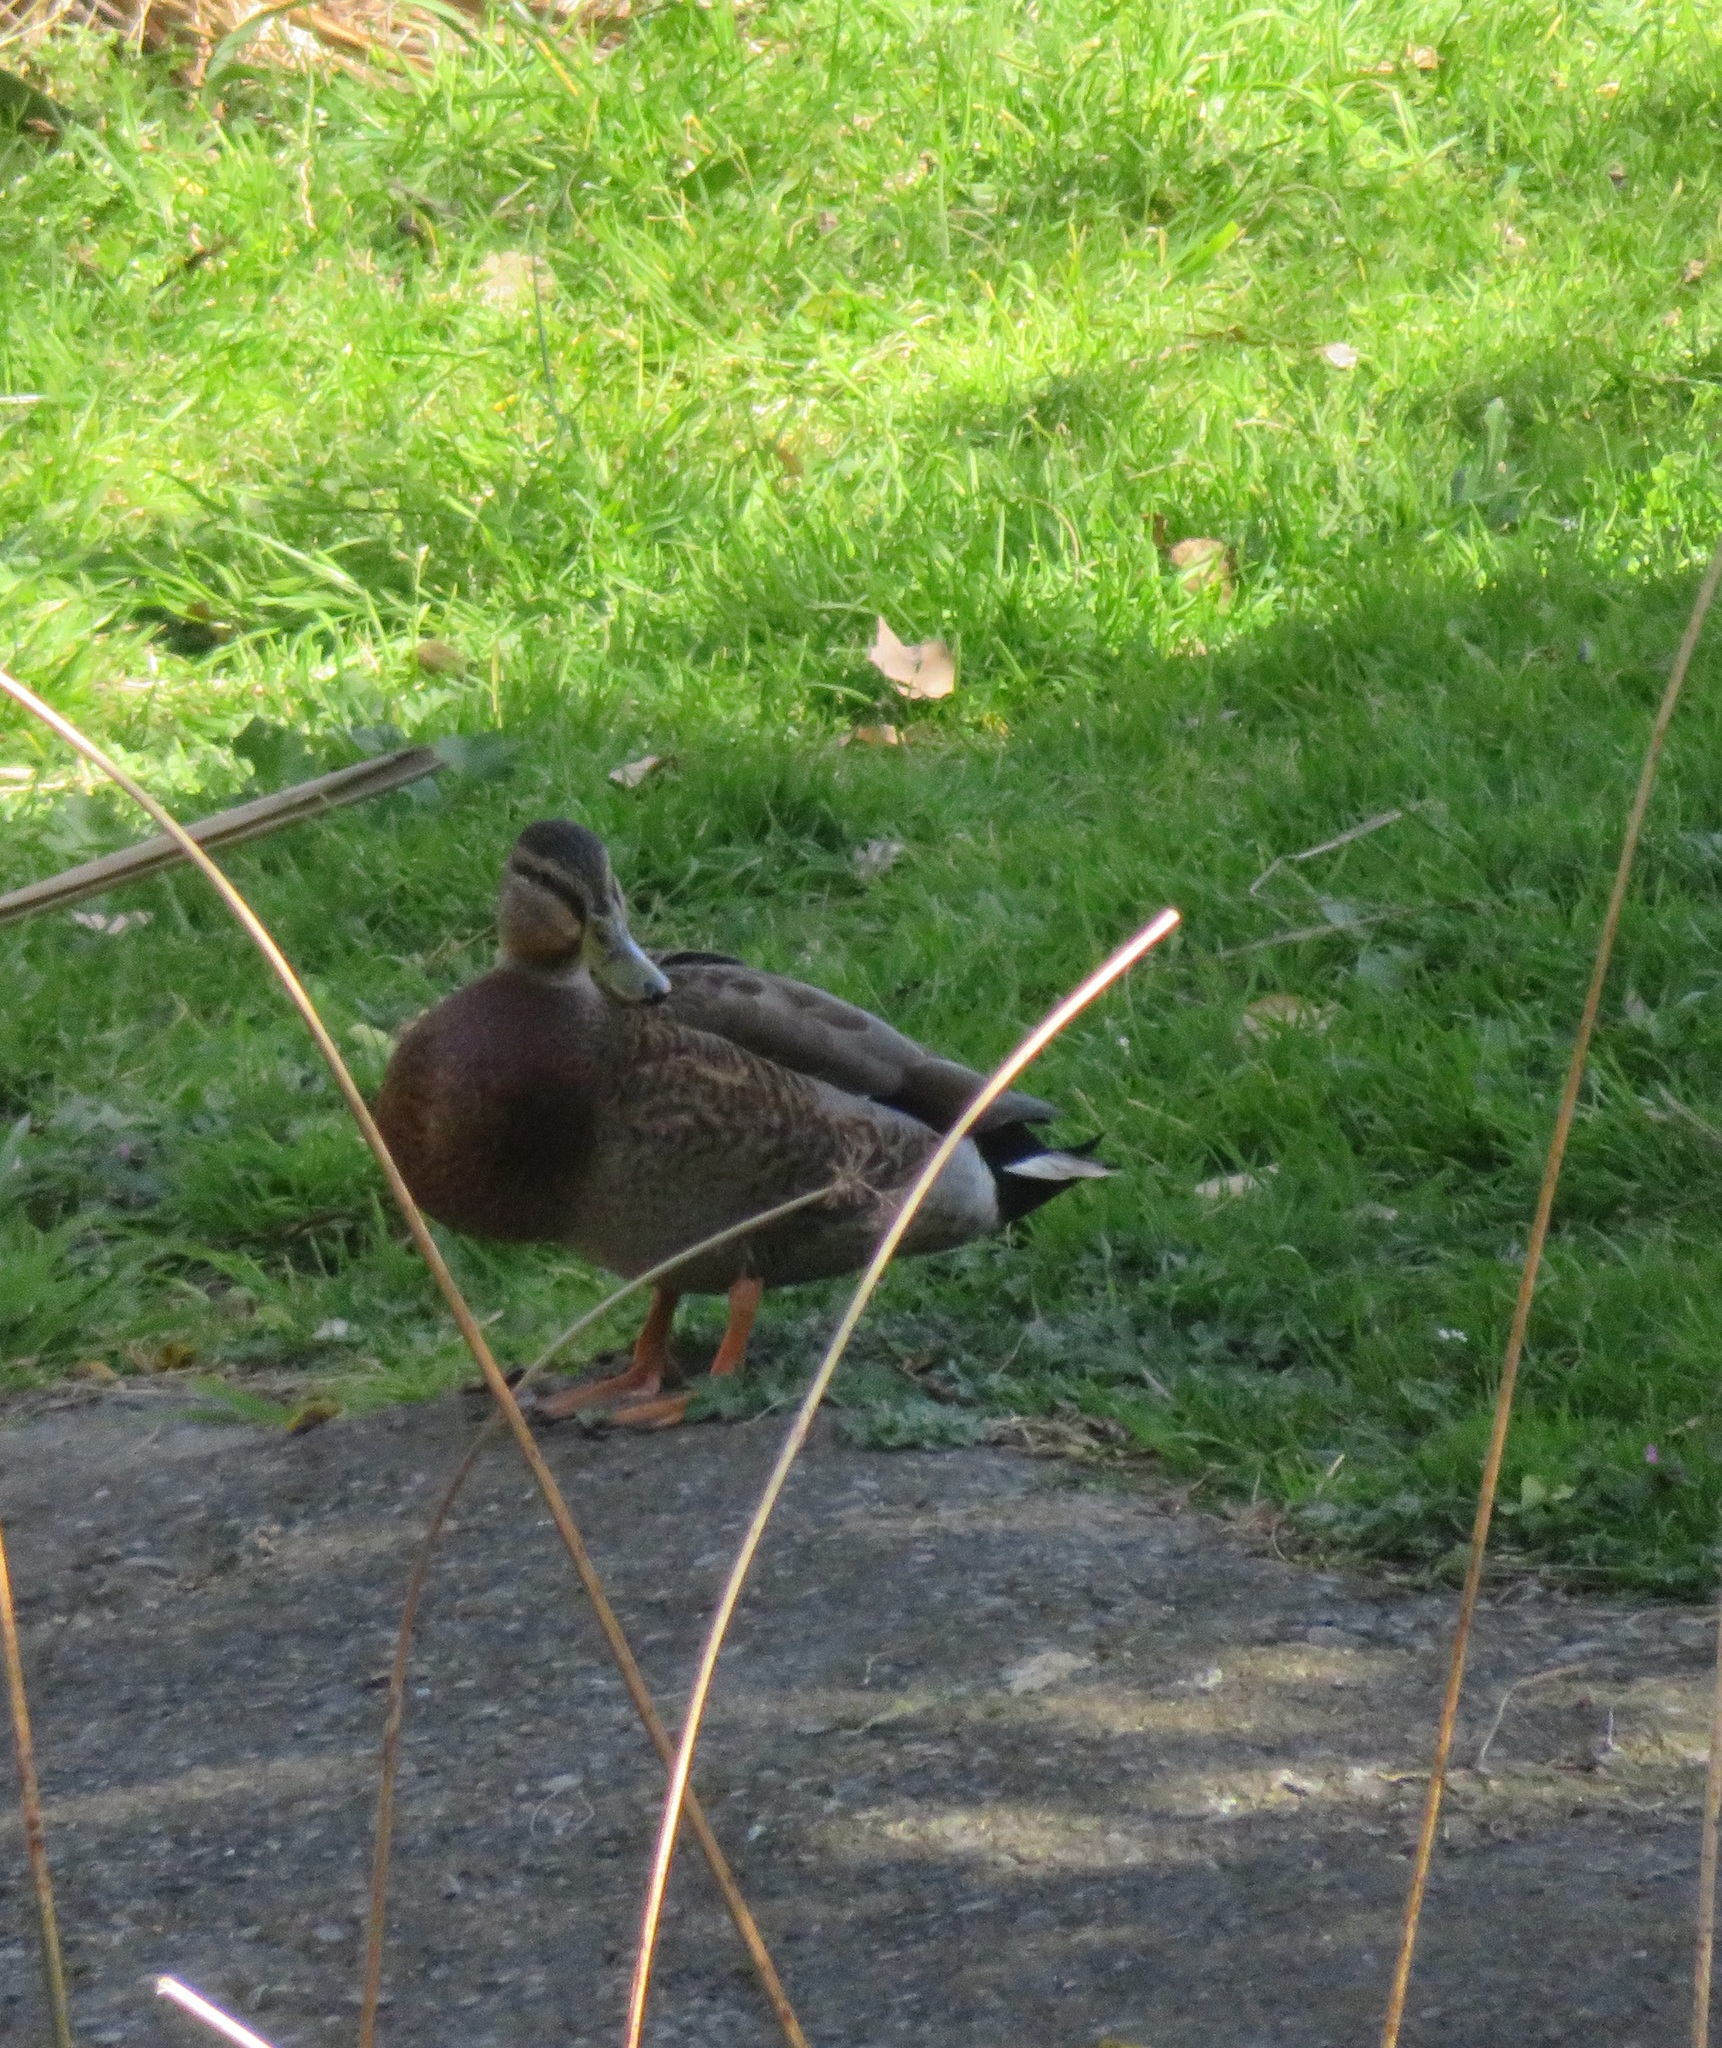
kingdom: Animalia
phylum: Chordata
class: Aves
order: Anseriformes
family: Anatidae
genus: Anas
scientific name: Anas
